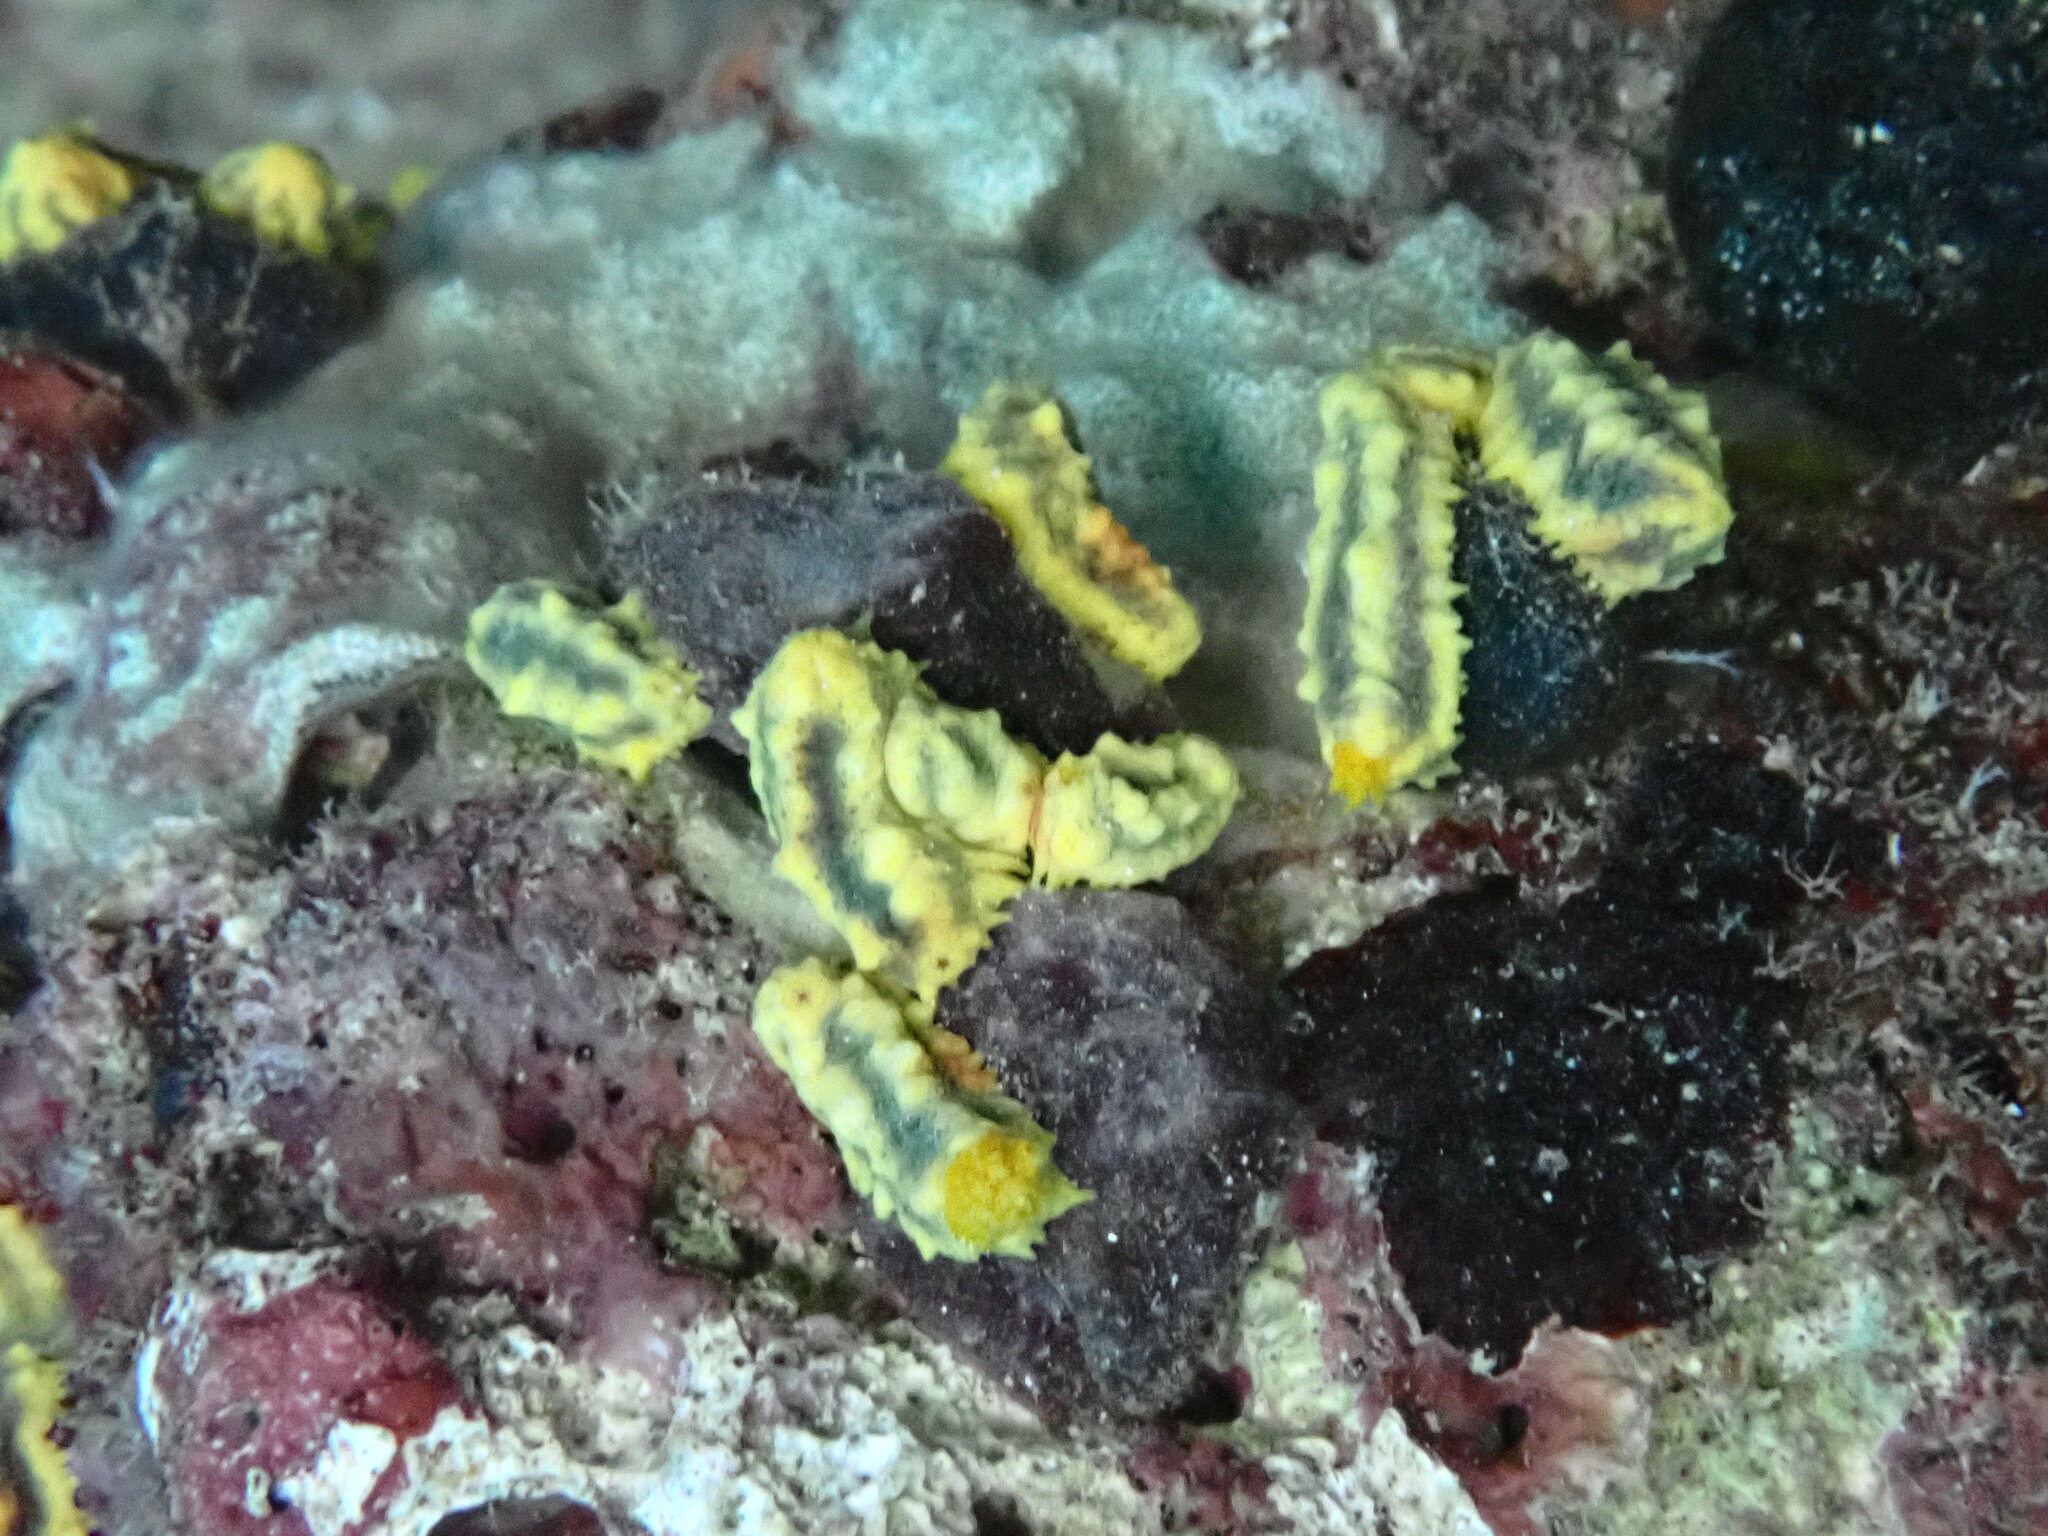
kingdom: Animalia
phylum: Echinodermata
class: Holothuroidea
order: Dendrochirotida
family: Cucumariidae
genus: Colochirus
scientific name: Colochirus robustus
